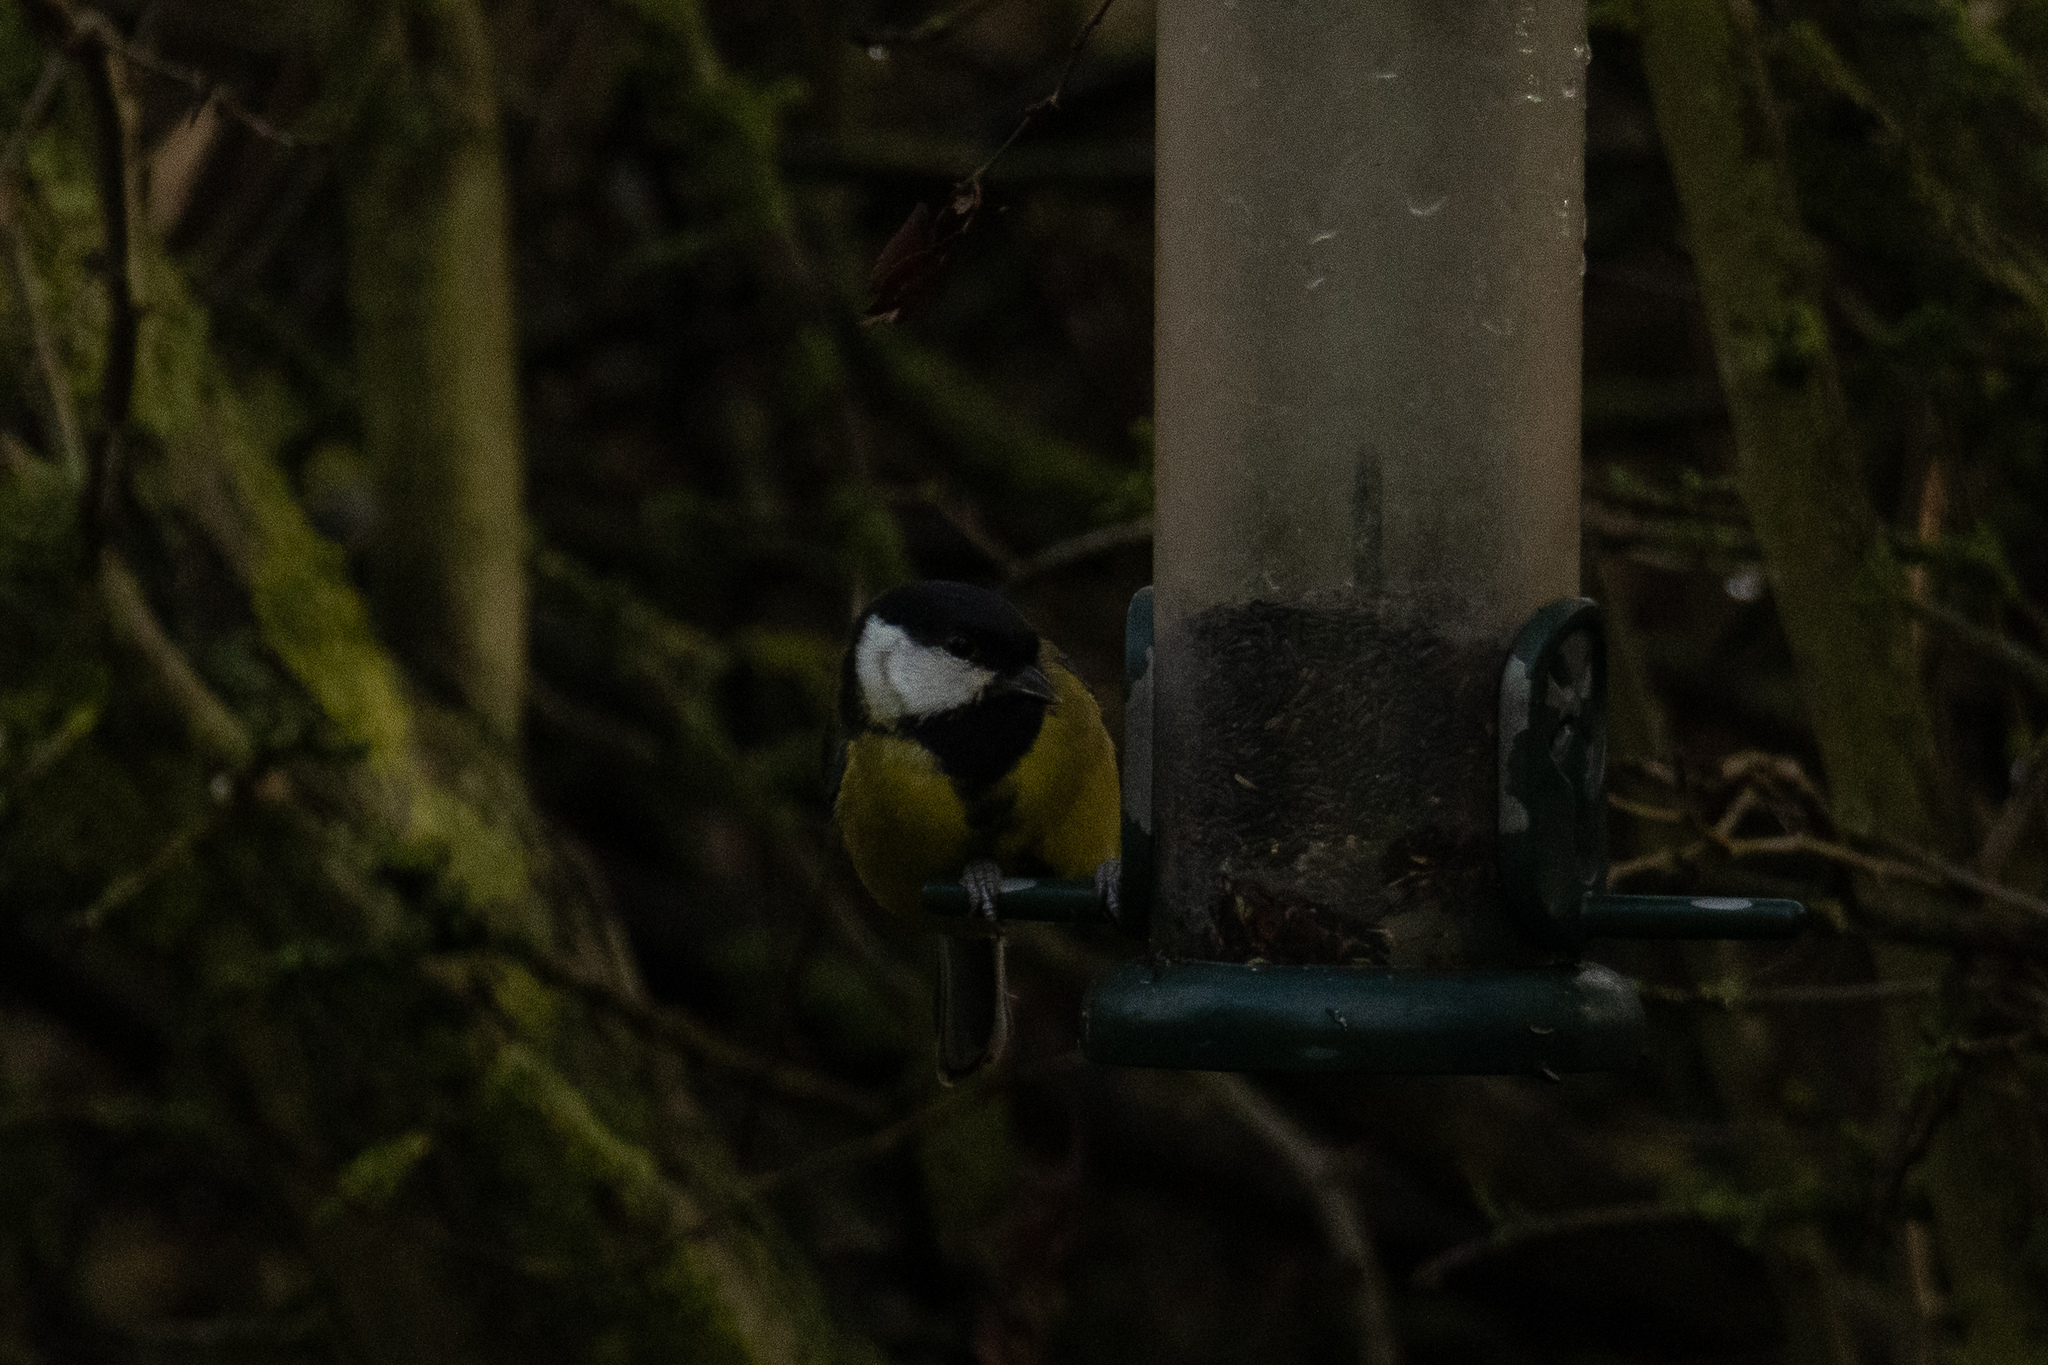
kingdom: Animalia
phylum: Chordata
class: Aves
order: Passeriformes
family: Paridae
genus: Parus
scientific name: Parus major
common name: Great tit
